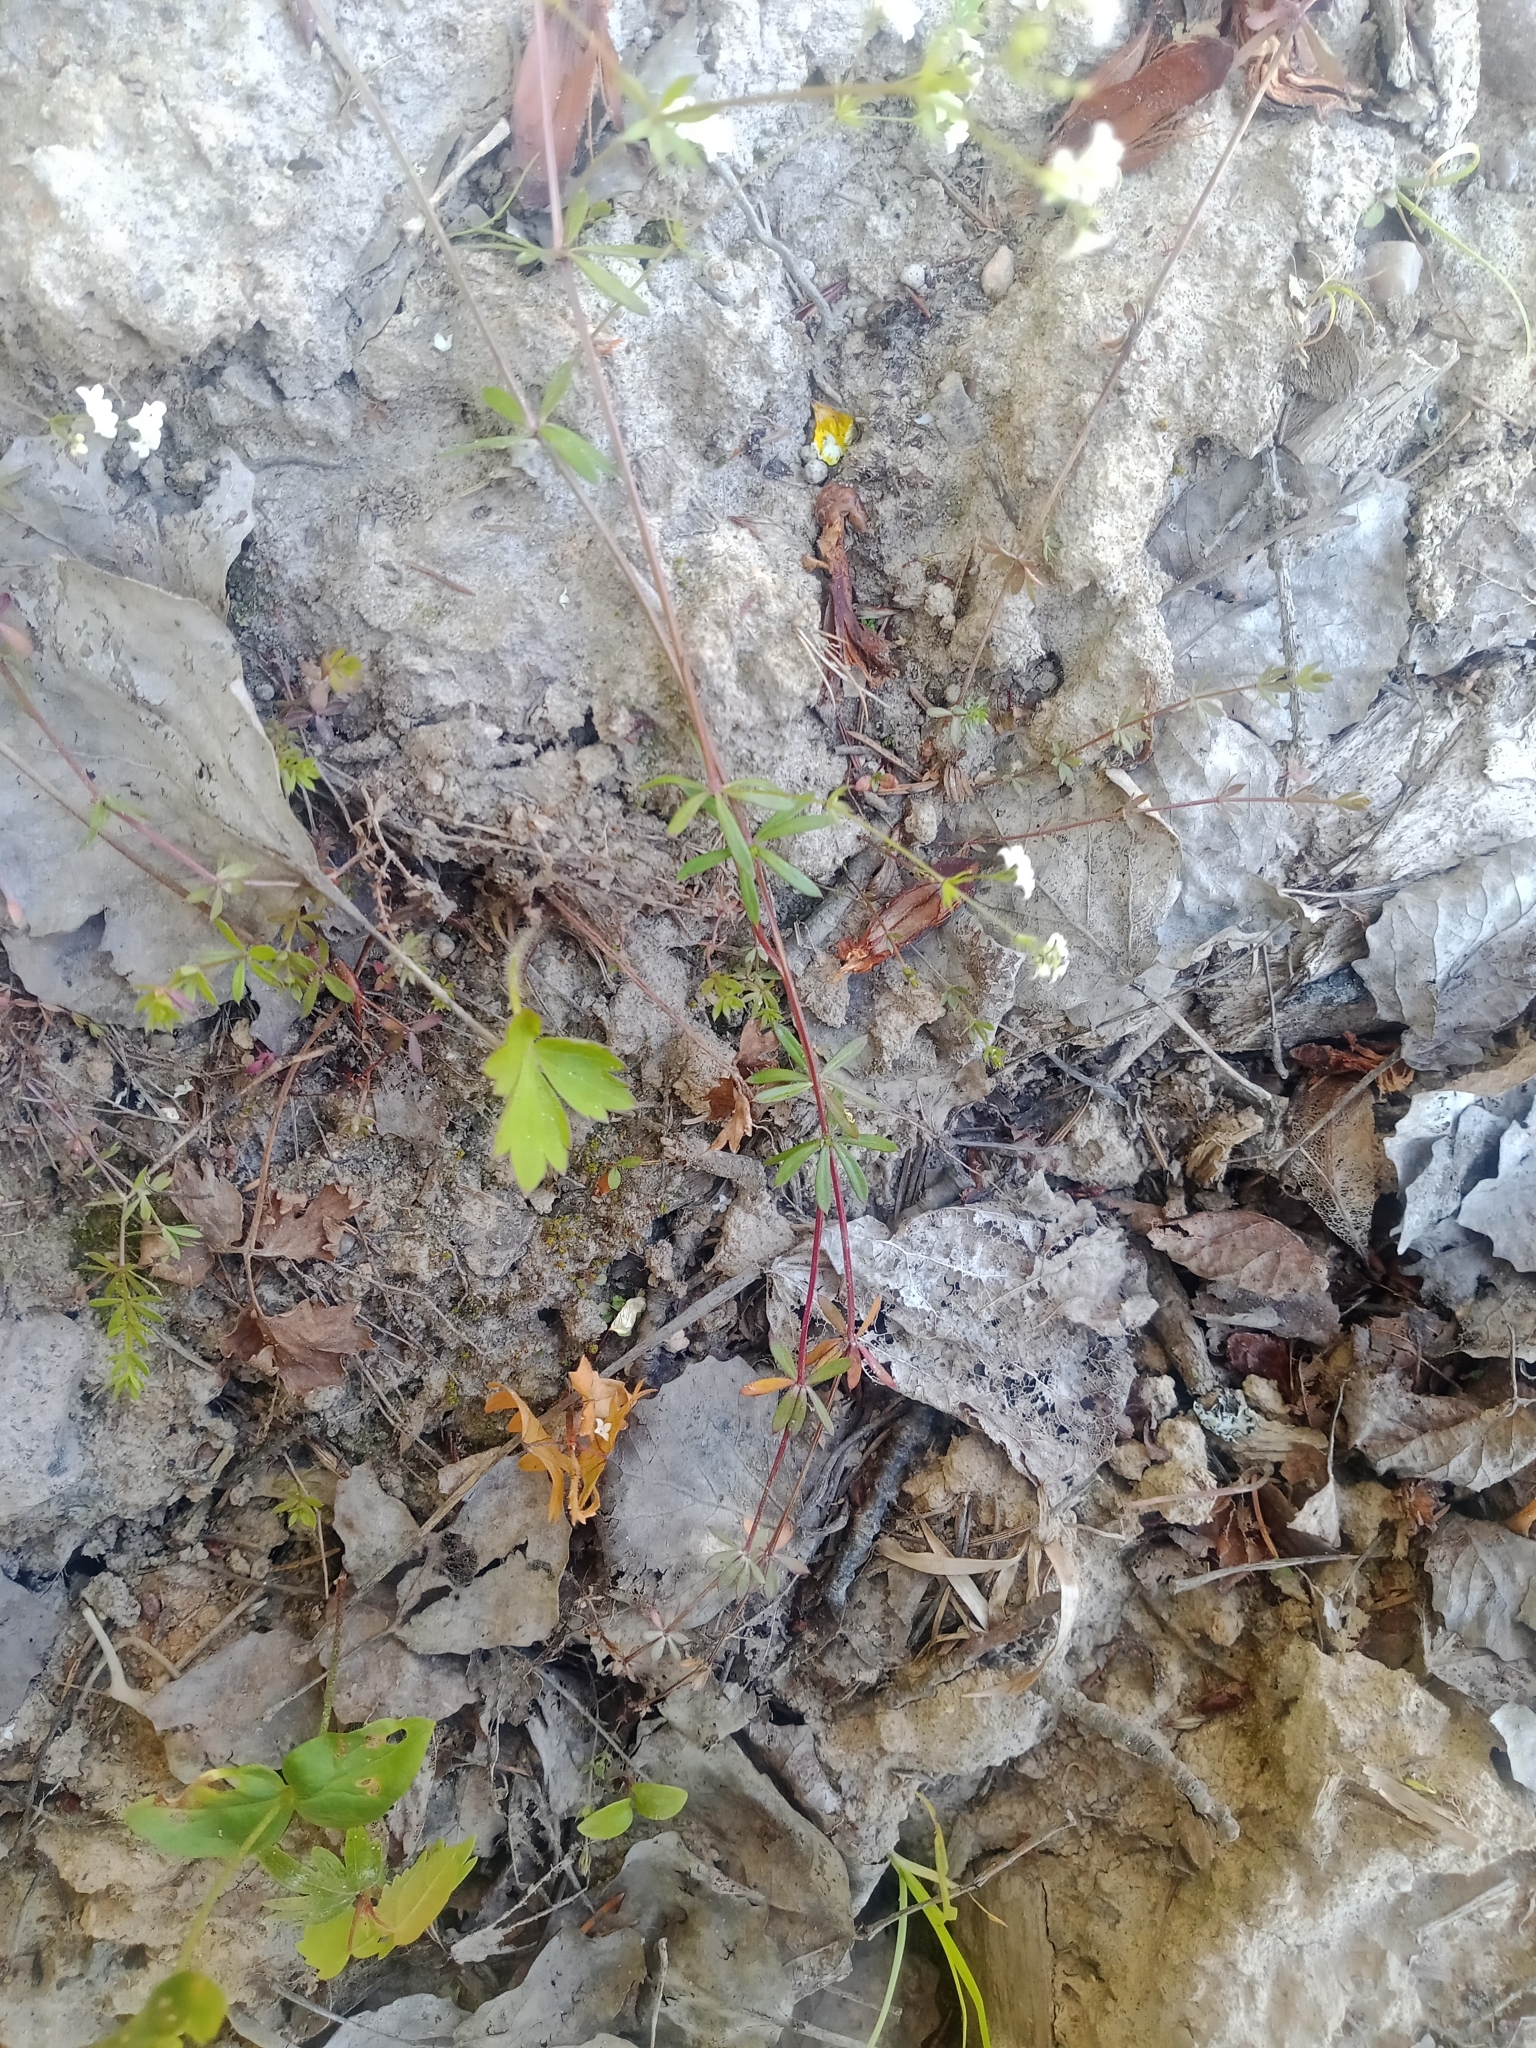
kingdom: Plantae
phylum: Tracheophyta
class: Magnoliopsida
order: Gentianales
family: Rubiaceae
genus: Galium
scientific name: Galium uliginosum
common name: Fen bedstraw
